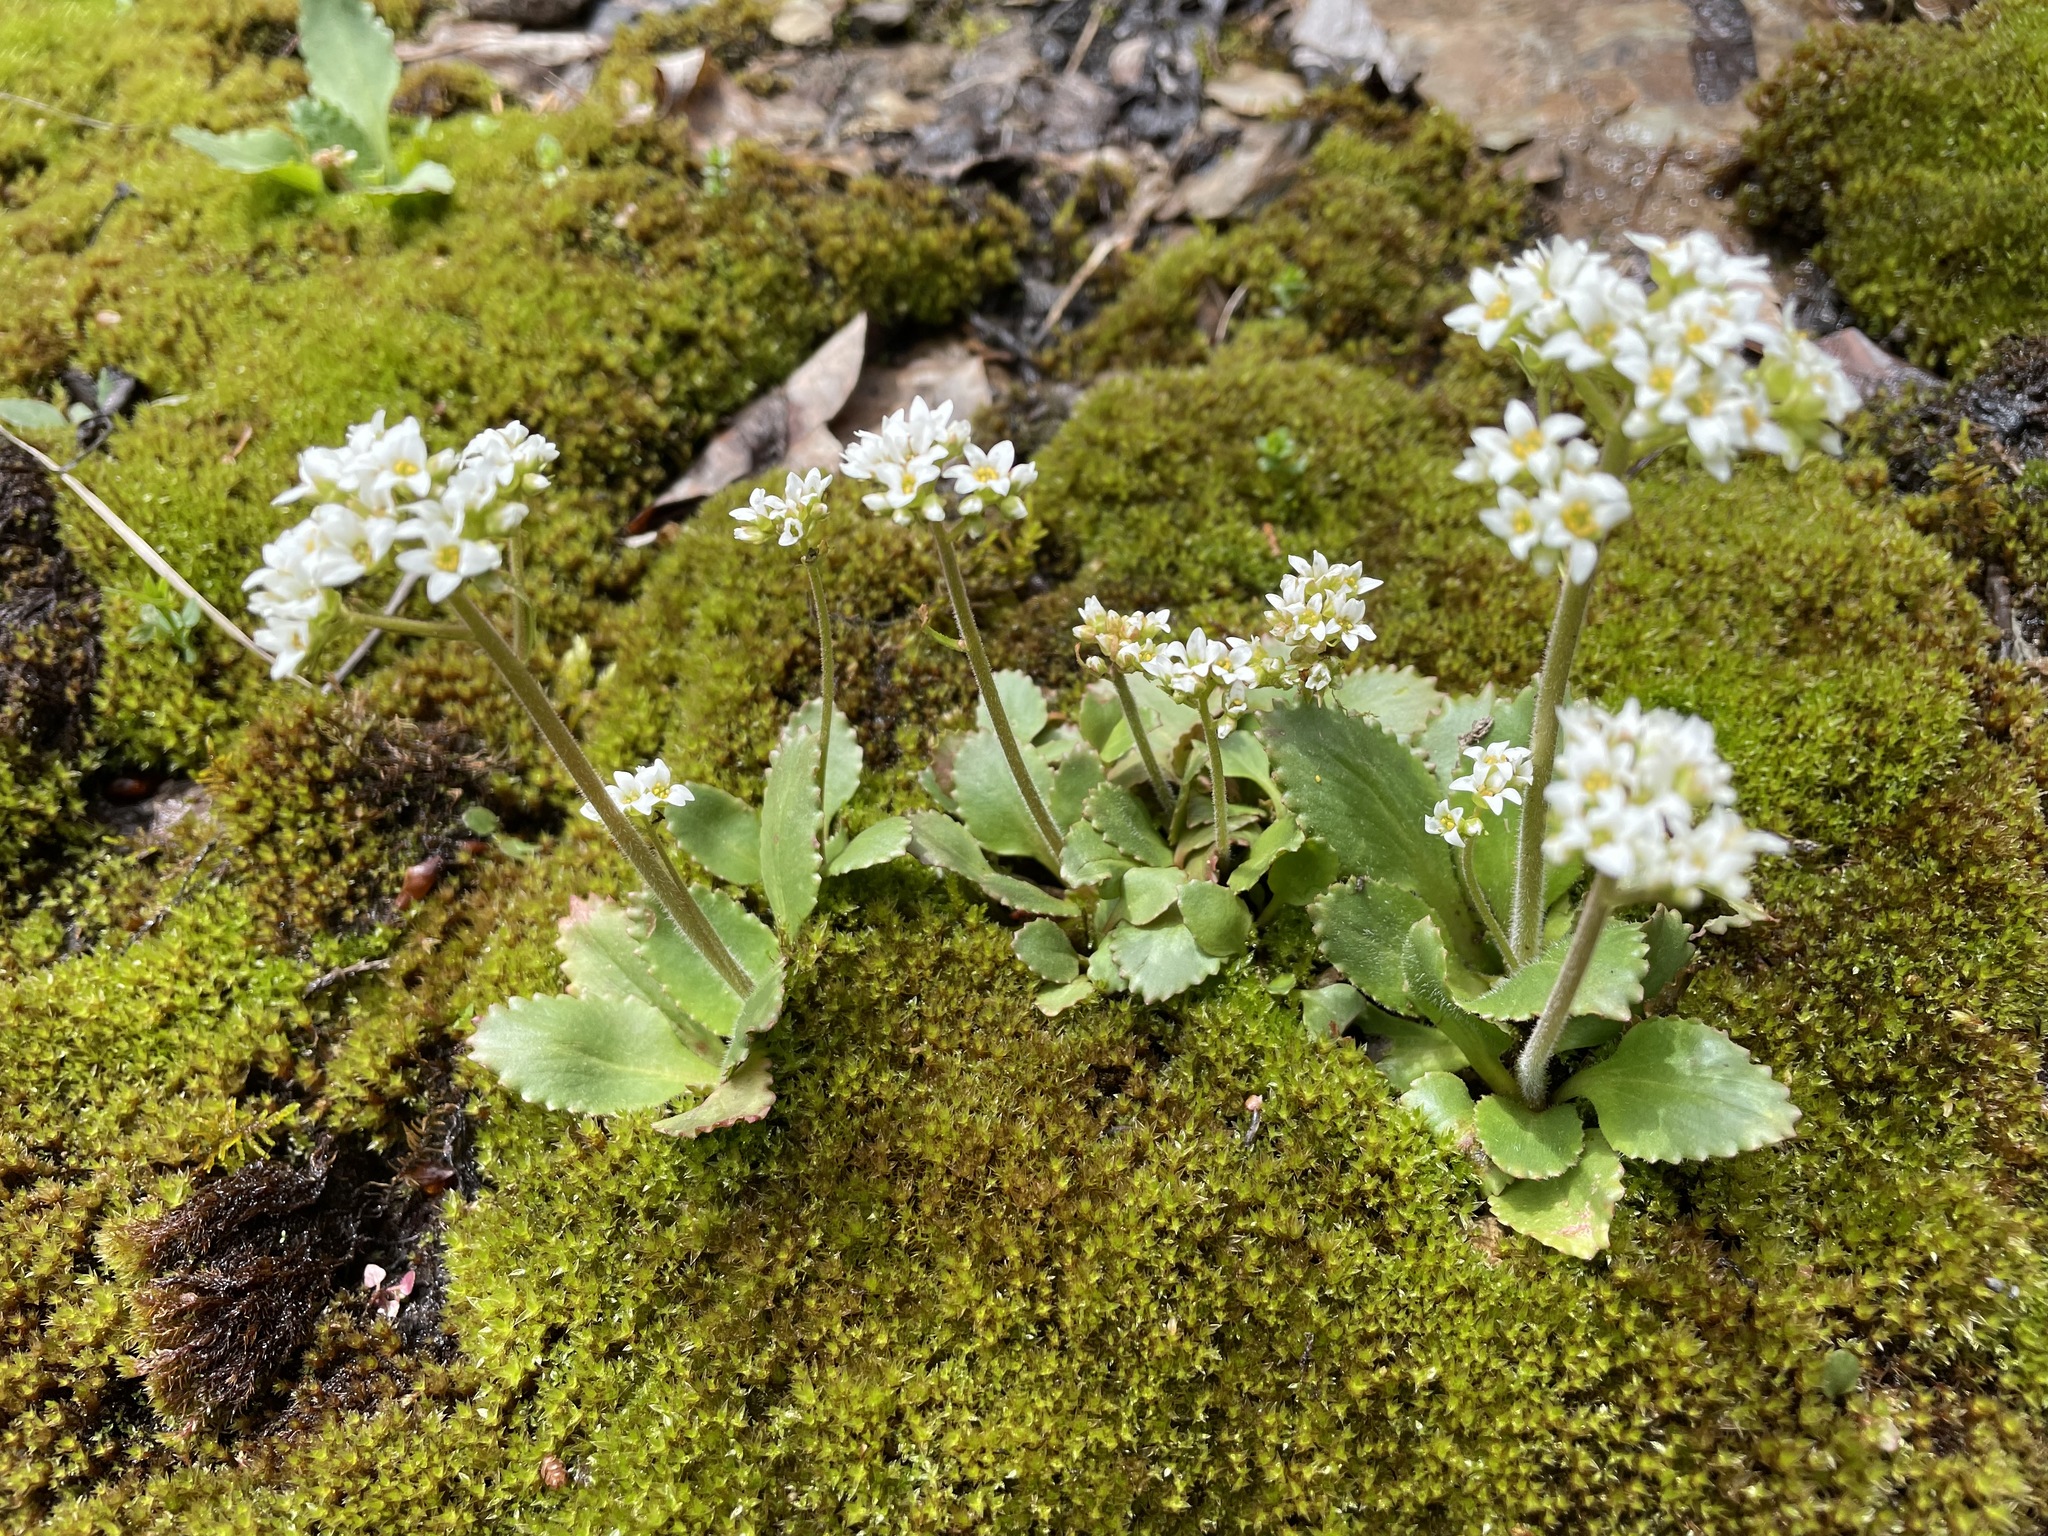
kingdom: Plantae
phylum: Tracheophyta
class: Magnoliopsida
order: Saxifragales
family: Saxifragaceae
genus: Micranthes
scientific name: Micranthes virginiensis
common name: Early saxifrage
